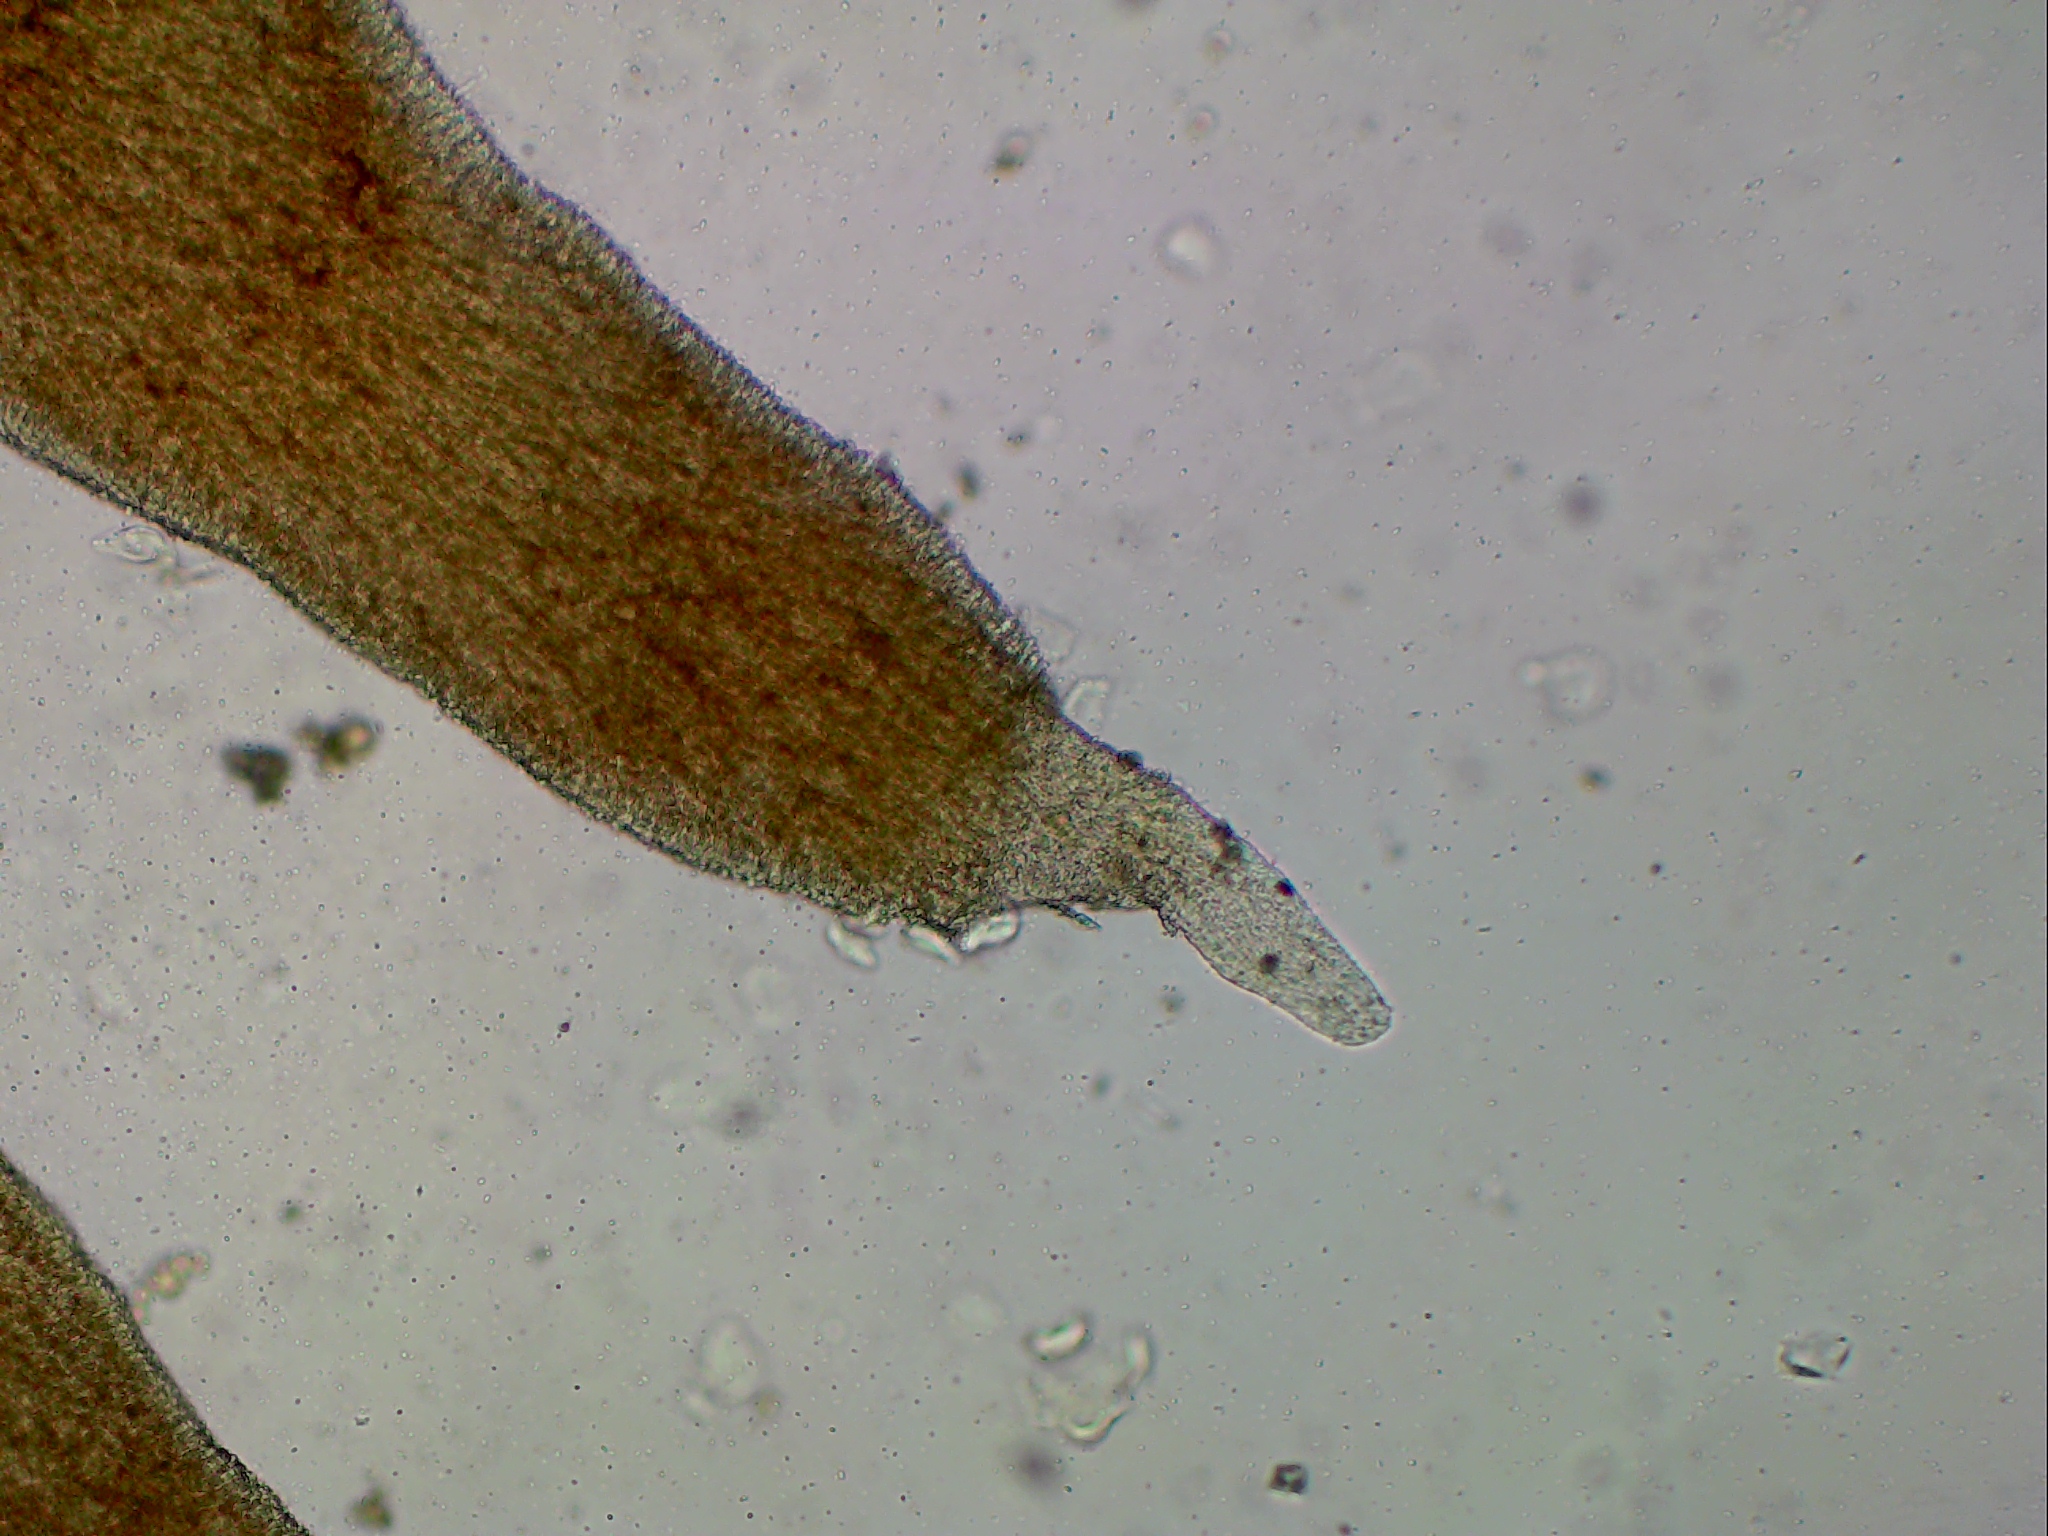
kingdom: Fungi
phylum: Basidiomycota
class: Agaricomycetes
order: Polyporales
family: Meruliaceae
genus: Hydnophlebia
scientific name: Hydnophlebia chrysorhiza
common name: Spreading yellow tooth
